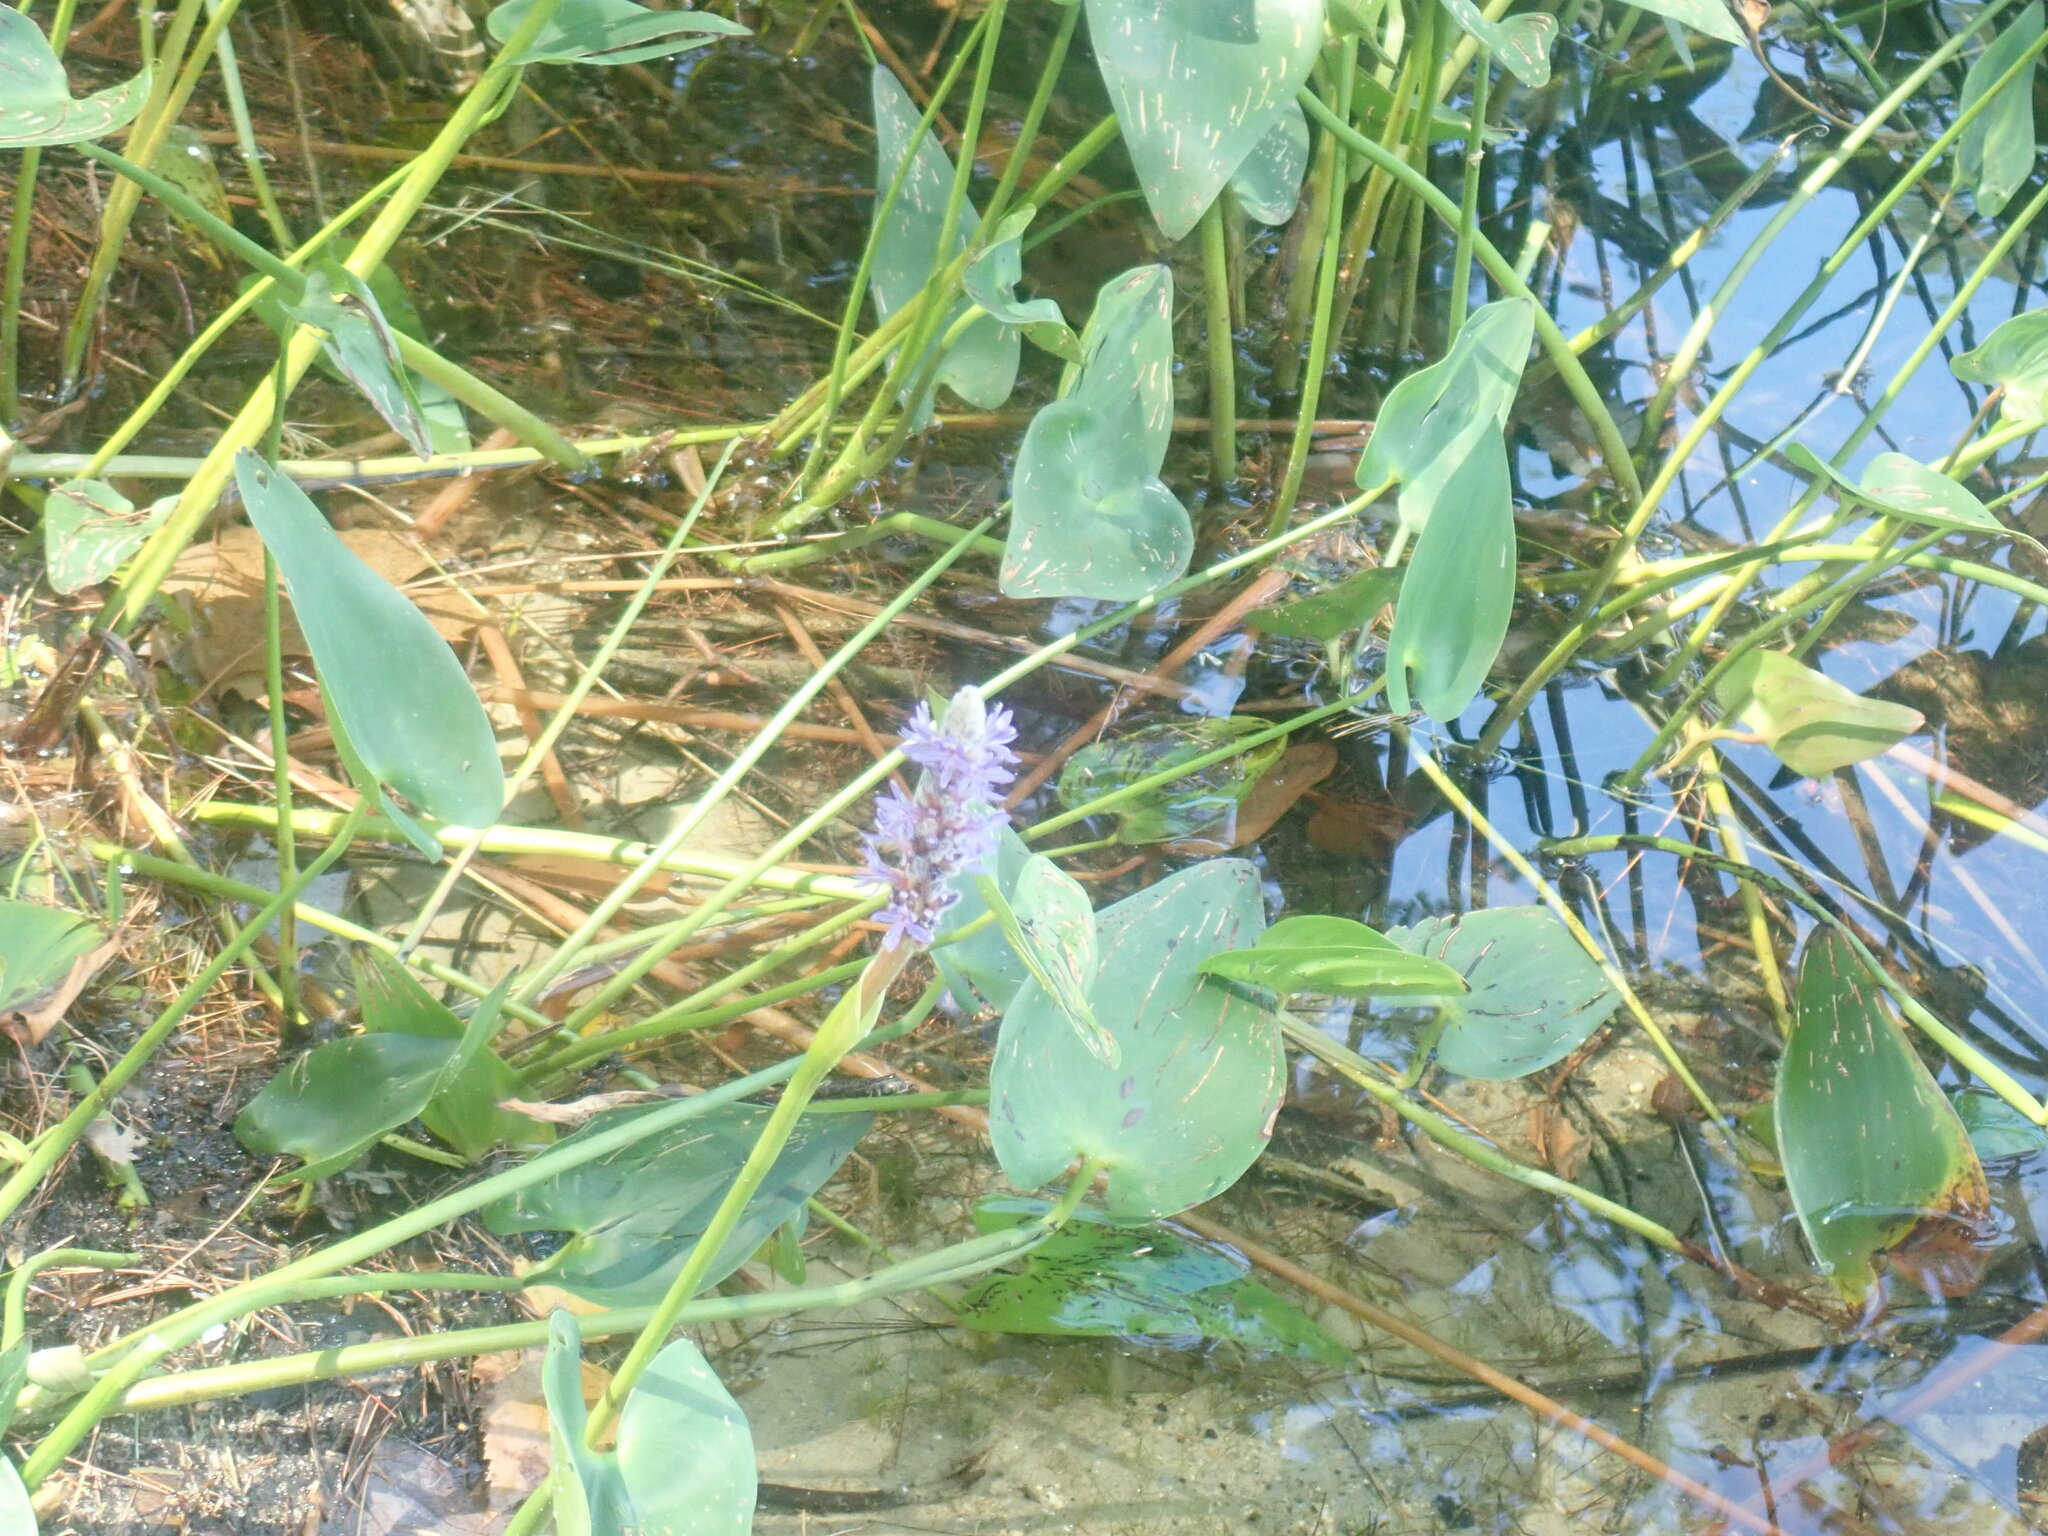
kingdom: Plantae
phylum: Tracheophyta
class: Liliopsida
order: Commelinales
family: Pontederiaceae
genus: Pontederia
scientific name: Pontederia cordata
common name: Pickerelweed
